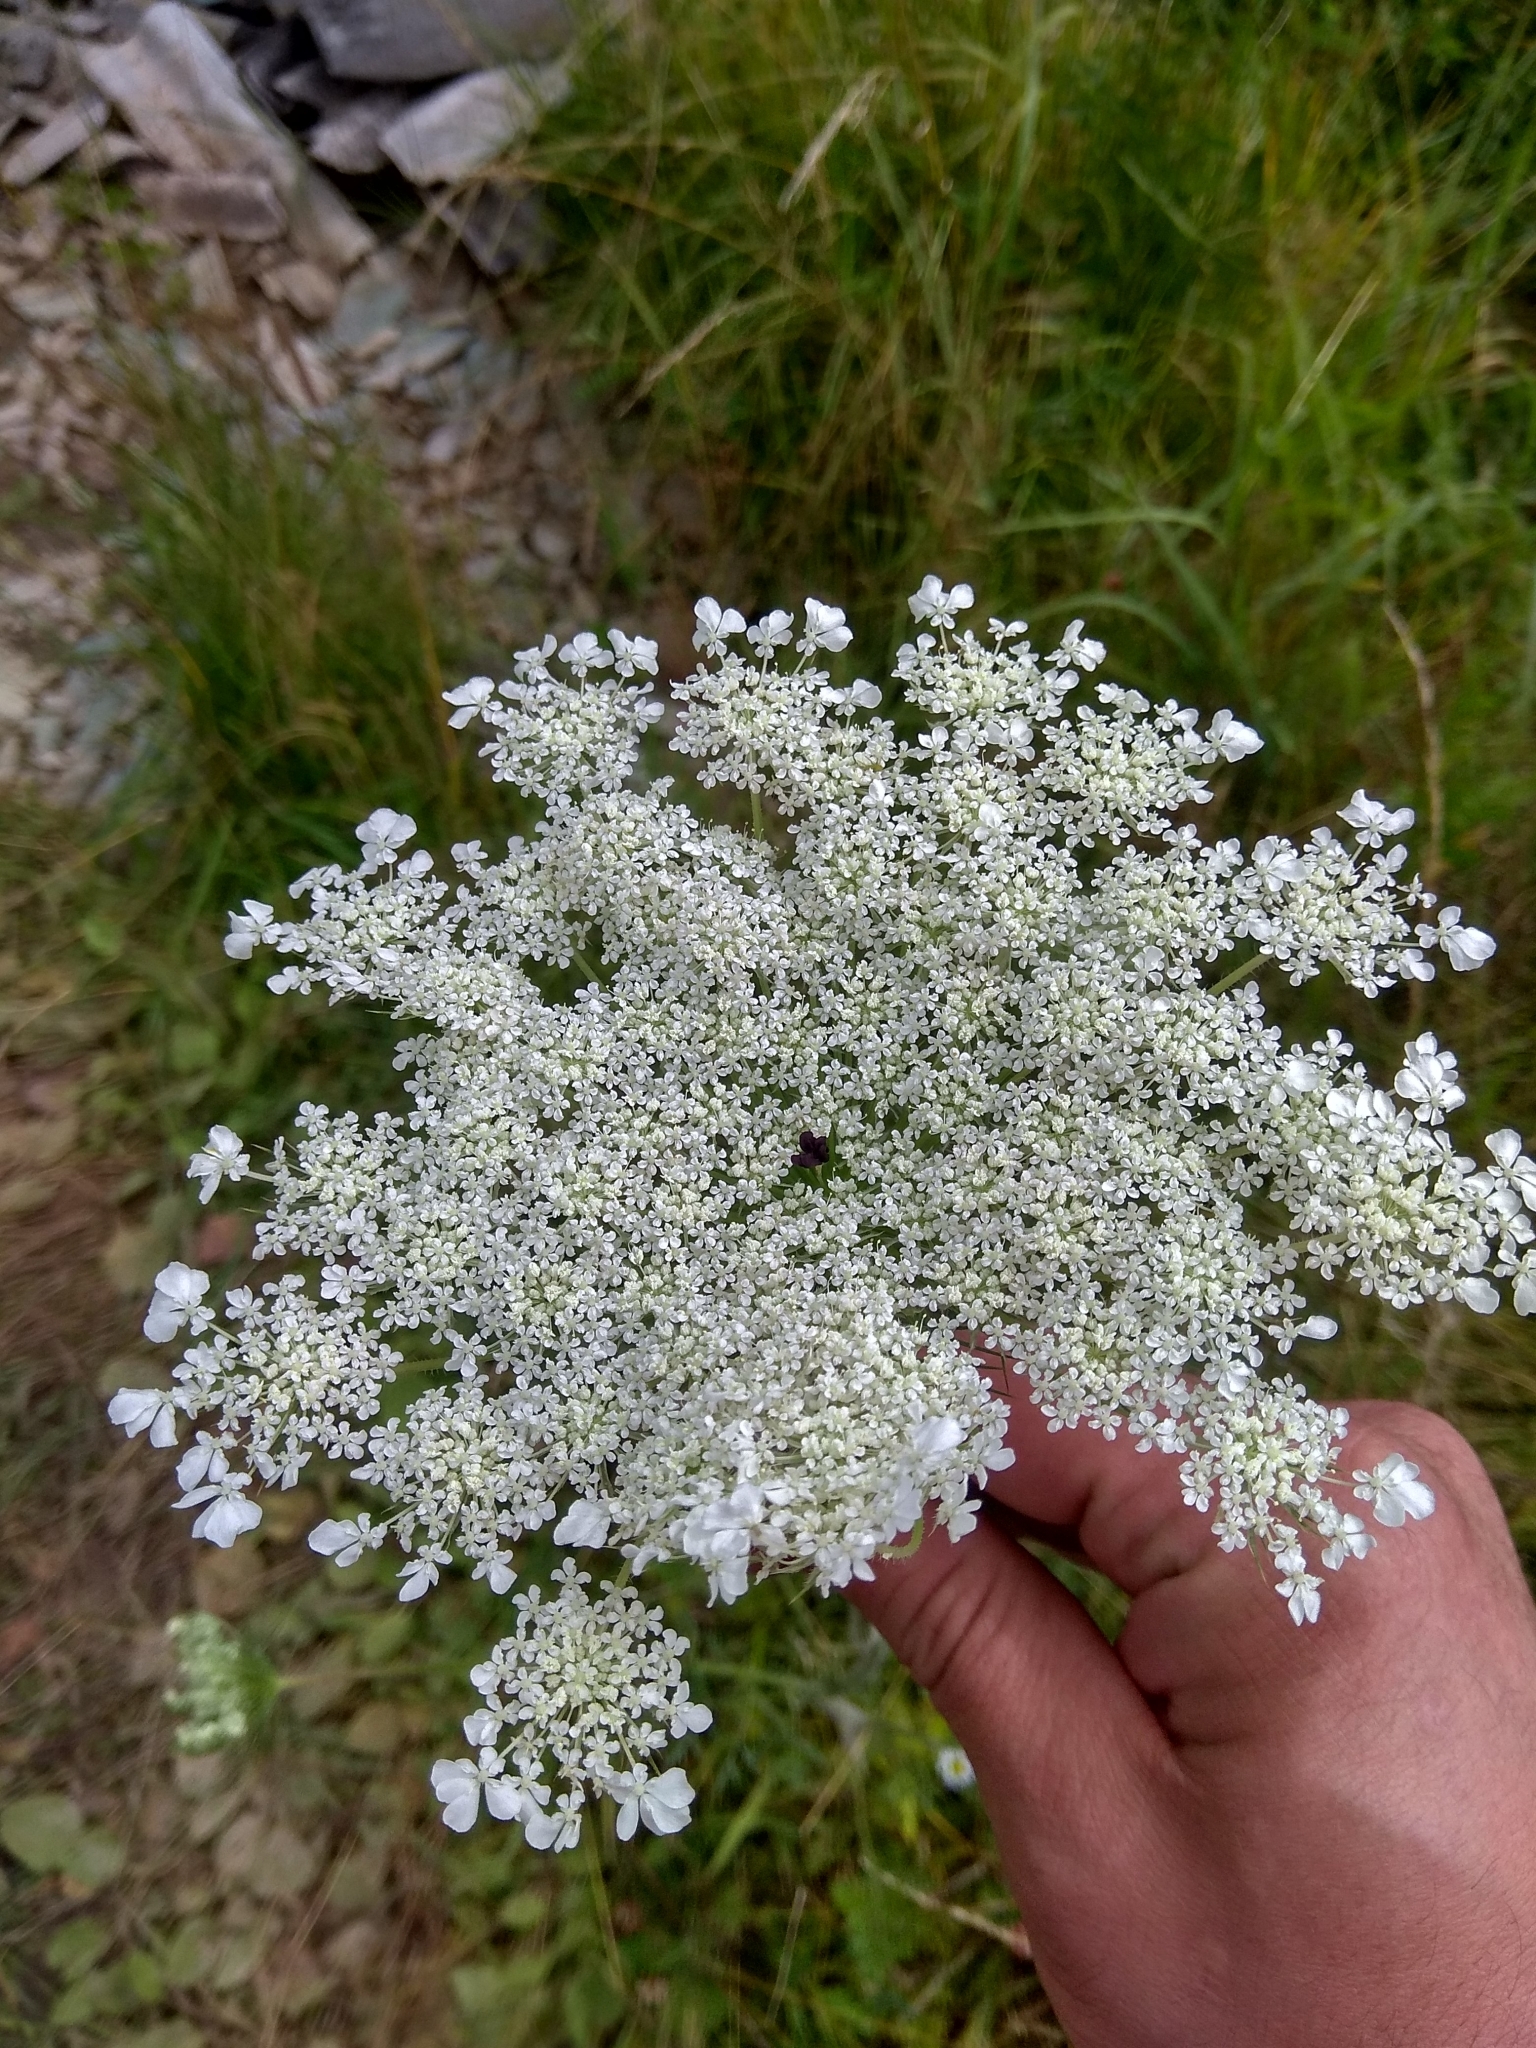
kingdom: Plantae
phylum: Tracheophyta
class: Magnoliopsida
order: Apiales
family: Apiaceae
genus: Daucus
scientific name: Daucus carota
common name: Wild carrot
